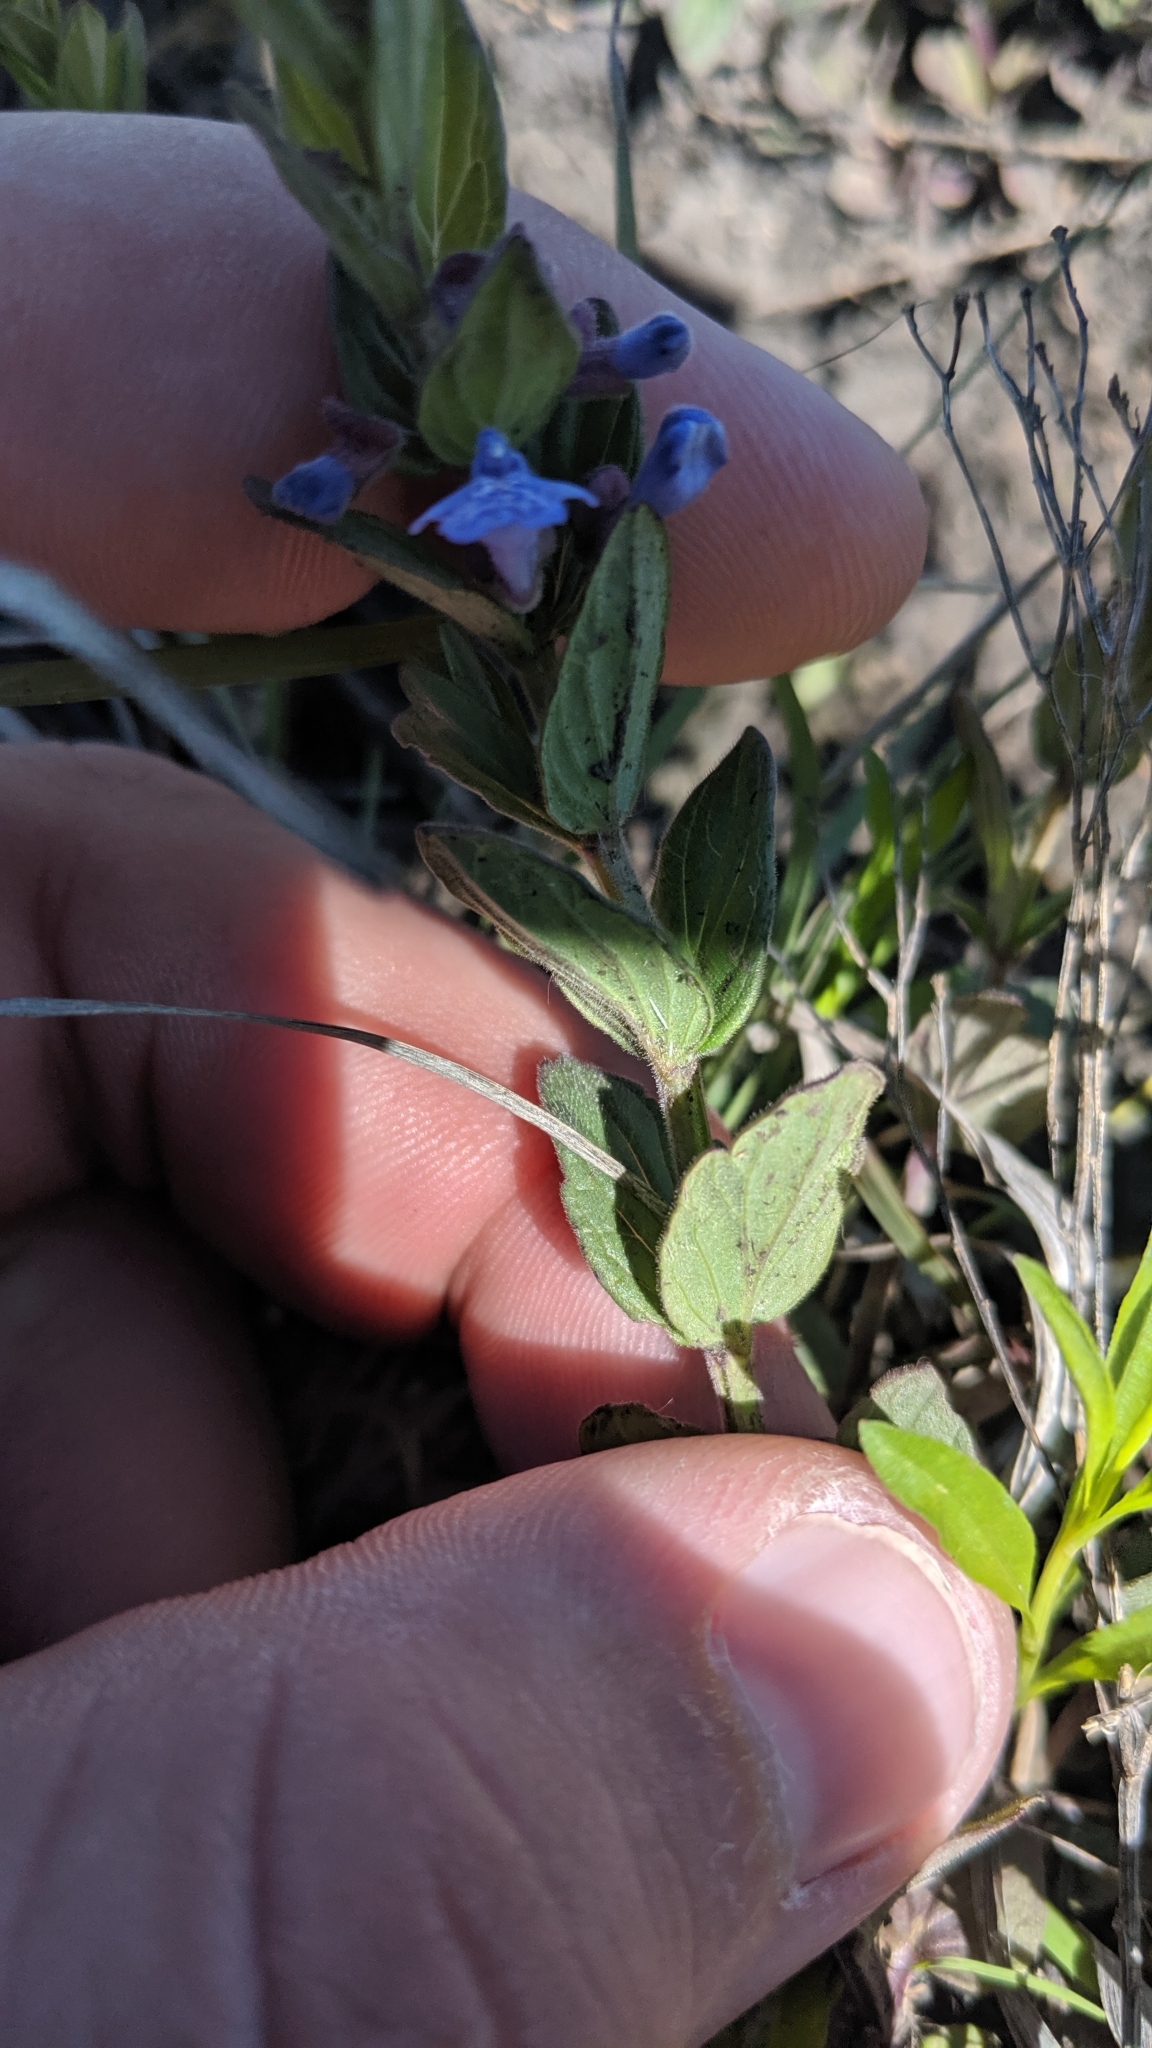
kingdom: Plantae
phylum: Tracheophyta
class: Magnoliopsida
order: Lamiales
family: Lamiaceae
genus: Scutellaria
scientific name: Scutellaria parvula
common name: Little scullcap
